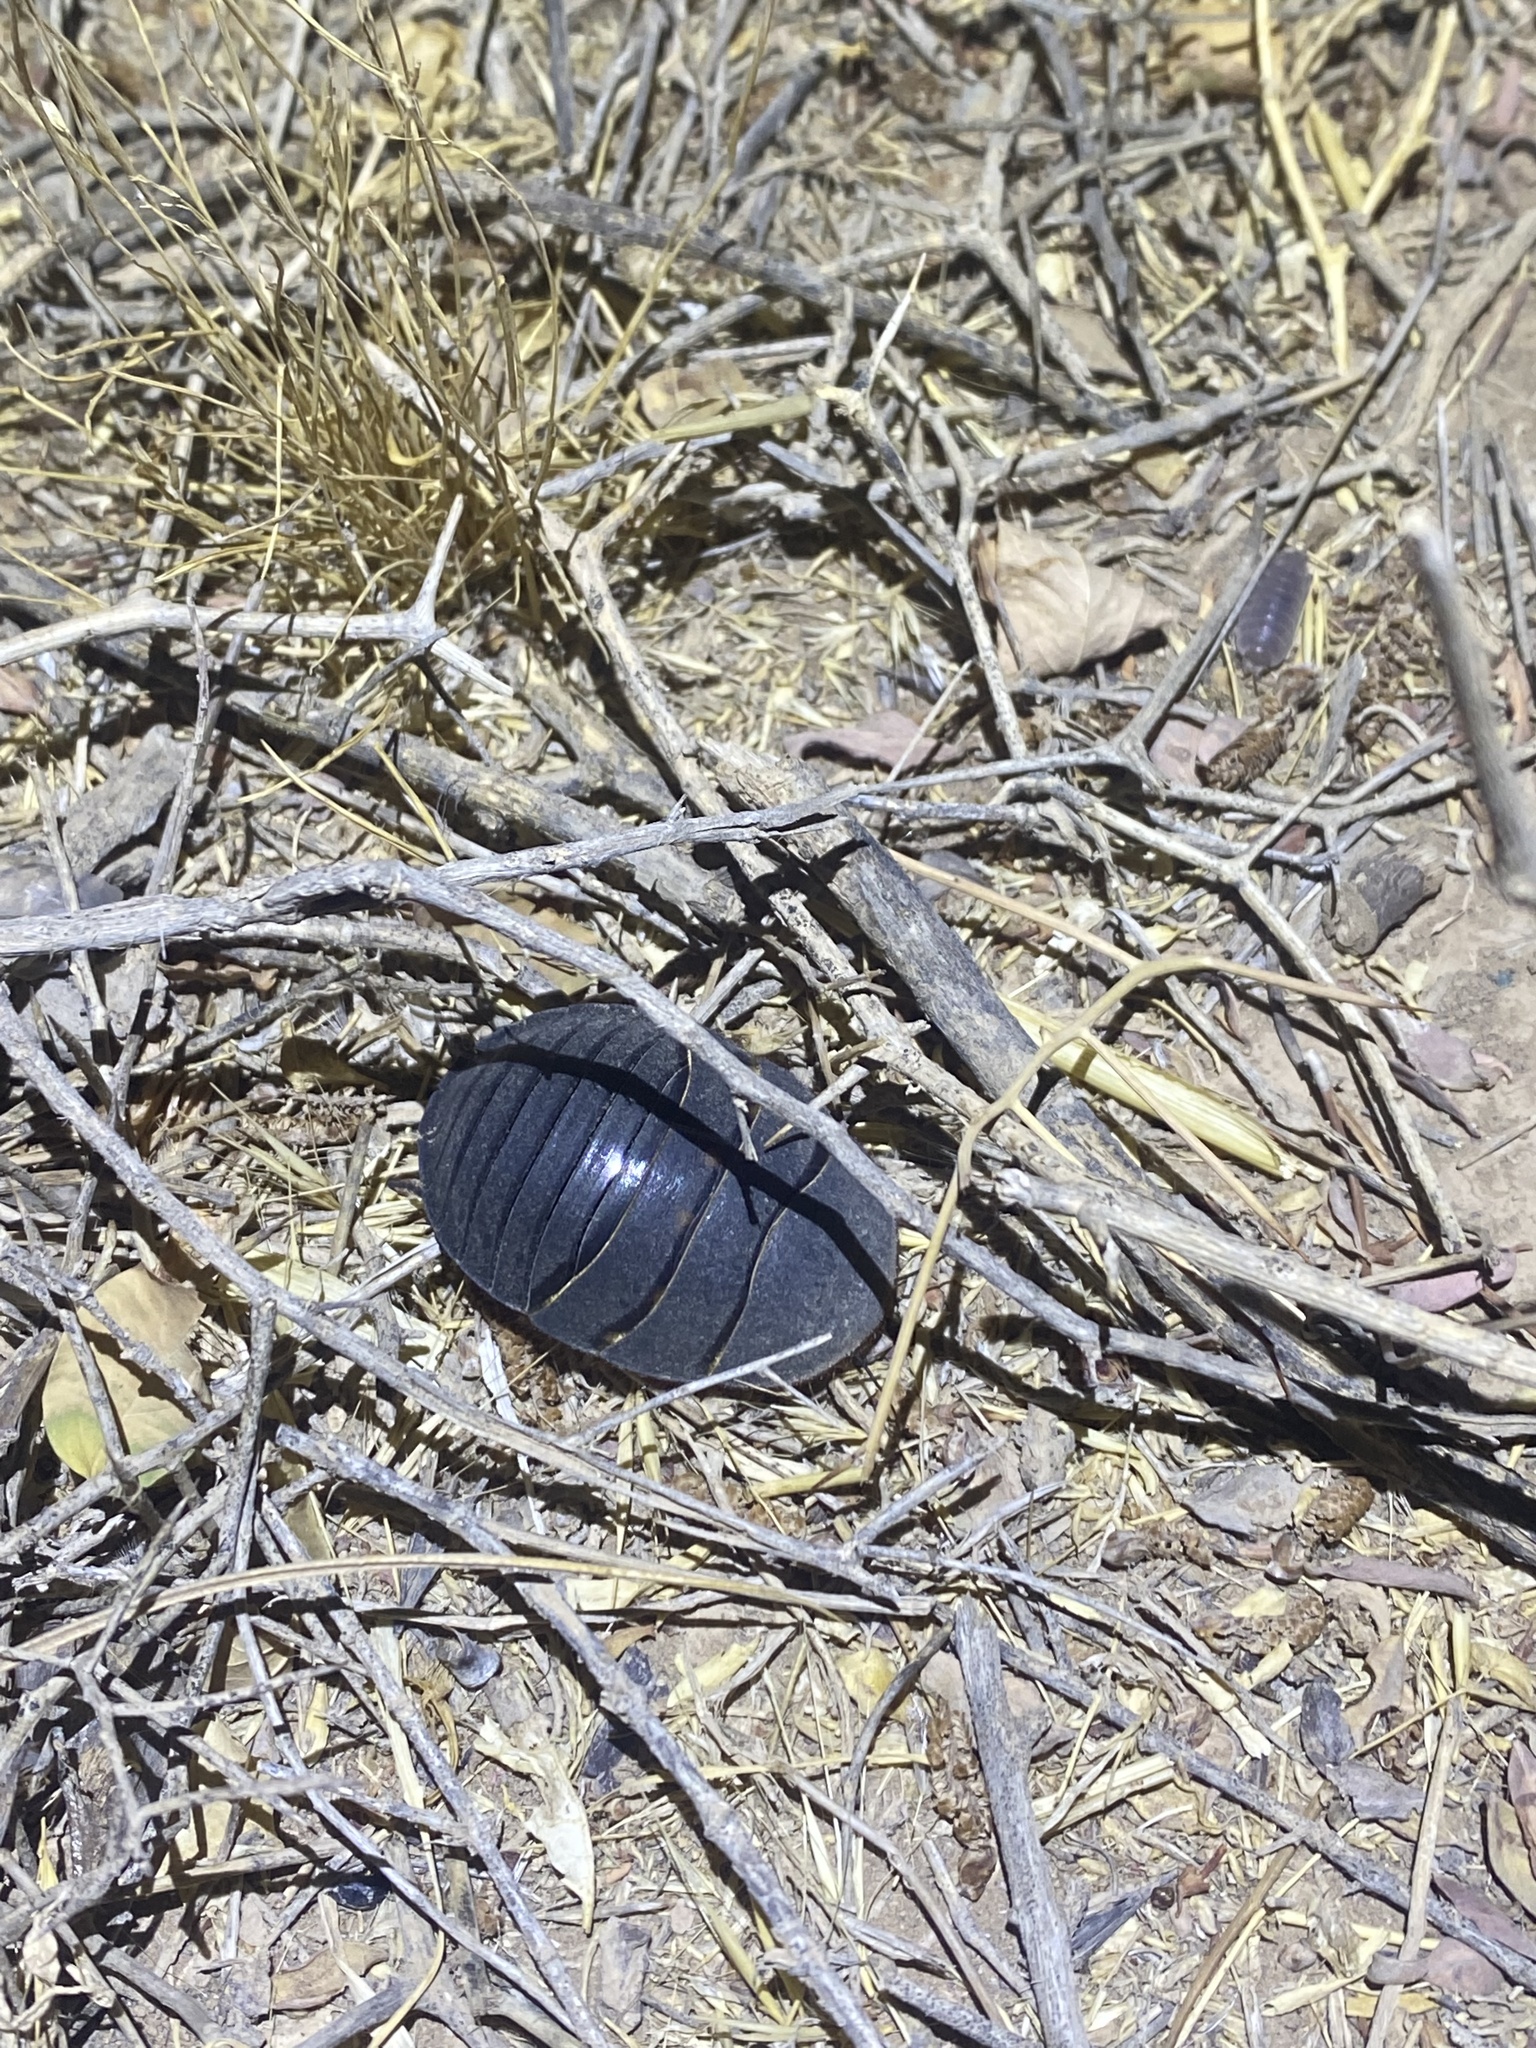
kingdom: Animalia
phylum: Arthropoda
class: Insecta
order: Blattodea
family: Corydiidae
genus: Polyphaga
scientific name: Polyphaga aegyptiaca
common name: Egyptian cockroach
